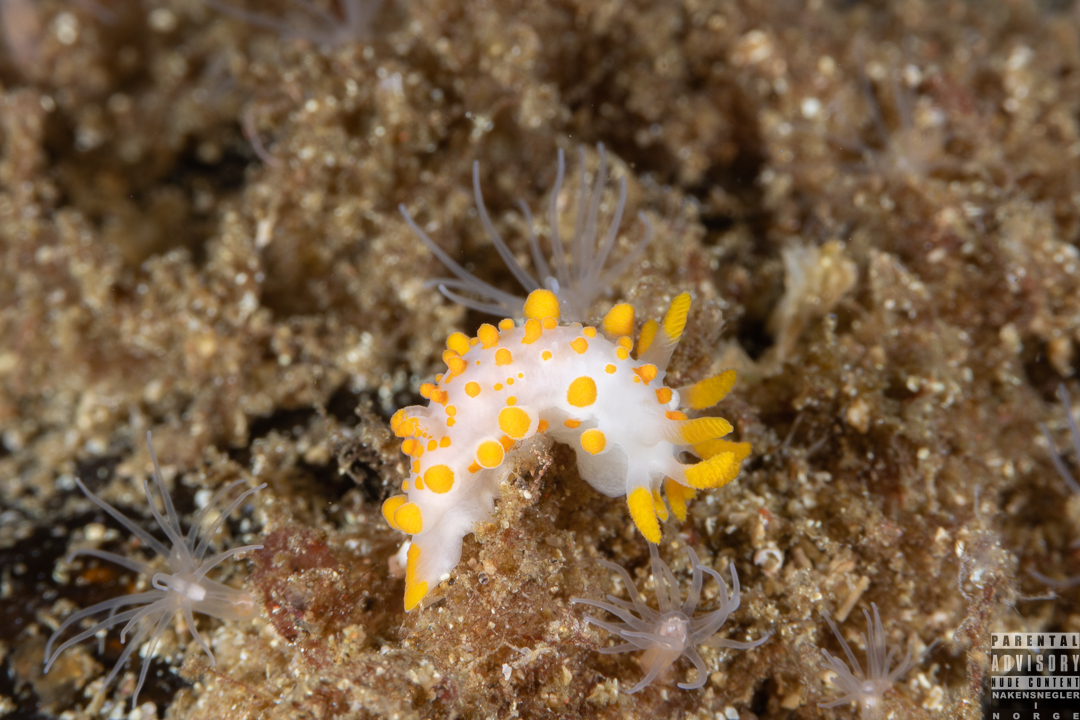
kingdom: Animalia
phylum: Mollusca
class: Gastropoda
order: Nudibranchia
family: Polyceridae
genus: Limacia
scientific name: Limacia clavigera
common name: Orange-clubbed sea slug
